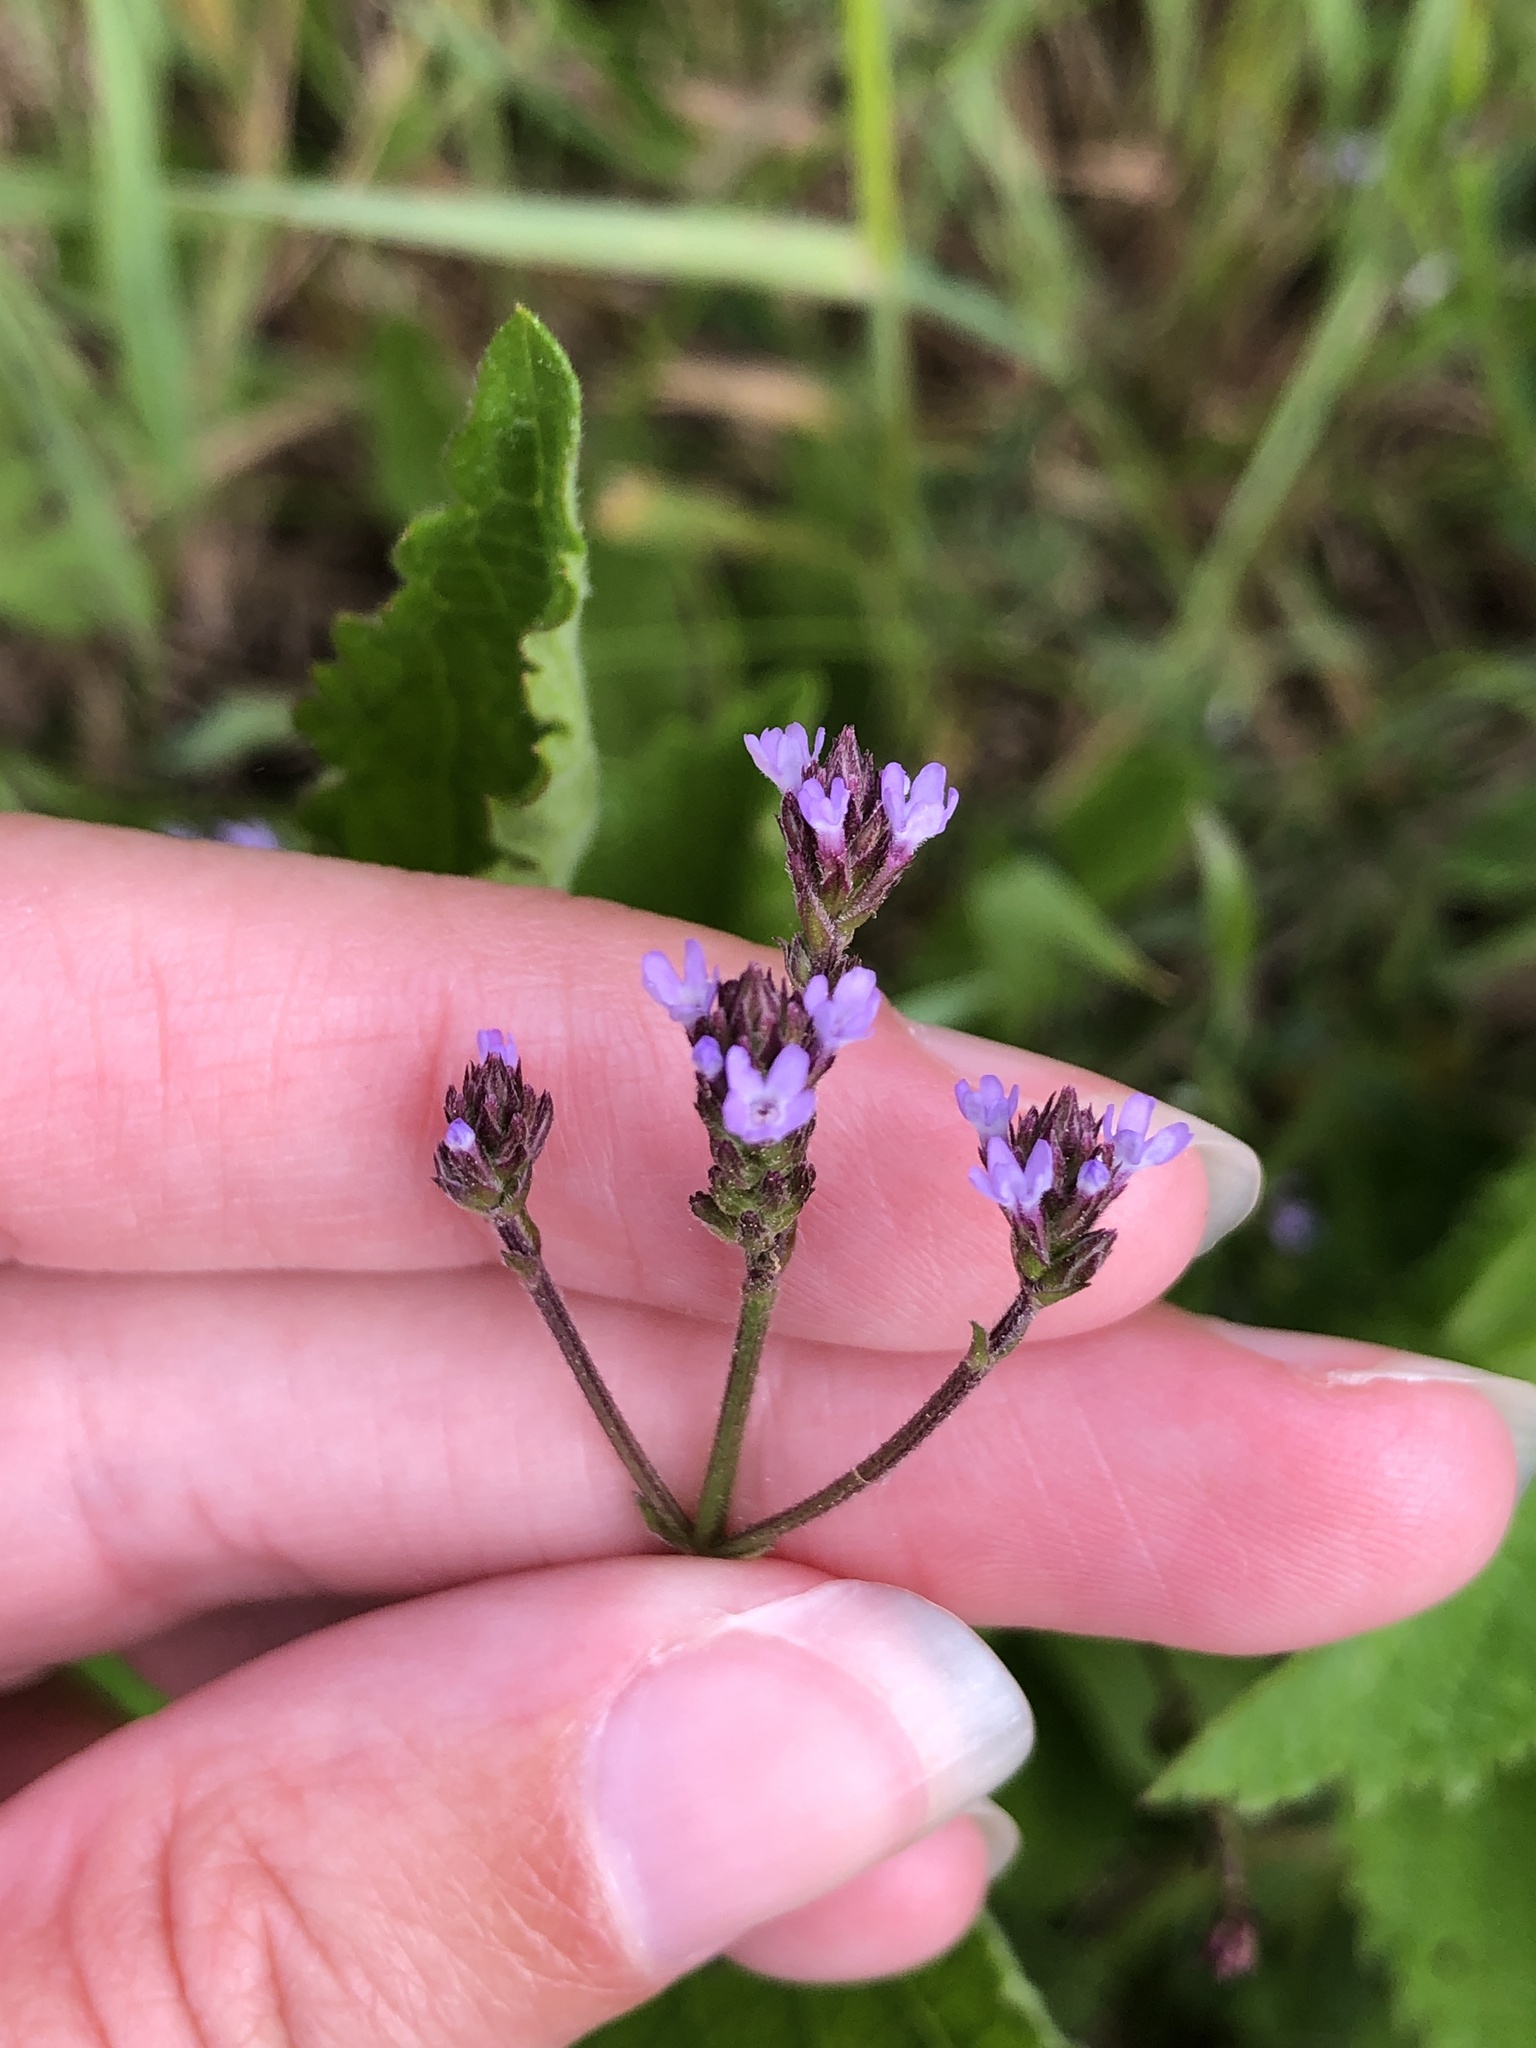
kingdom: Plantae
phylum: Tracheophyta
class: Magnoliopsida
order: Lamiales
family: Verbenaceae
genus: Verbena
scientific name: Verbena brasiliensis
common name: Brazilian vervain
